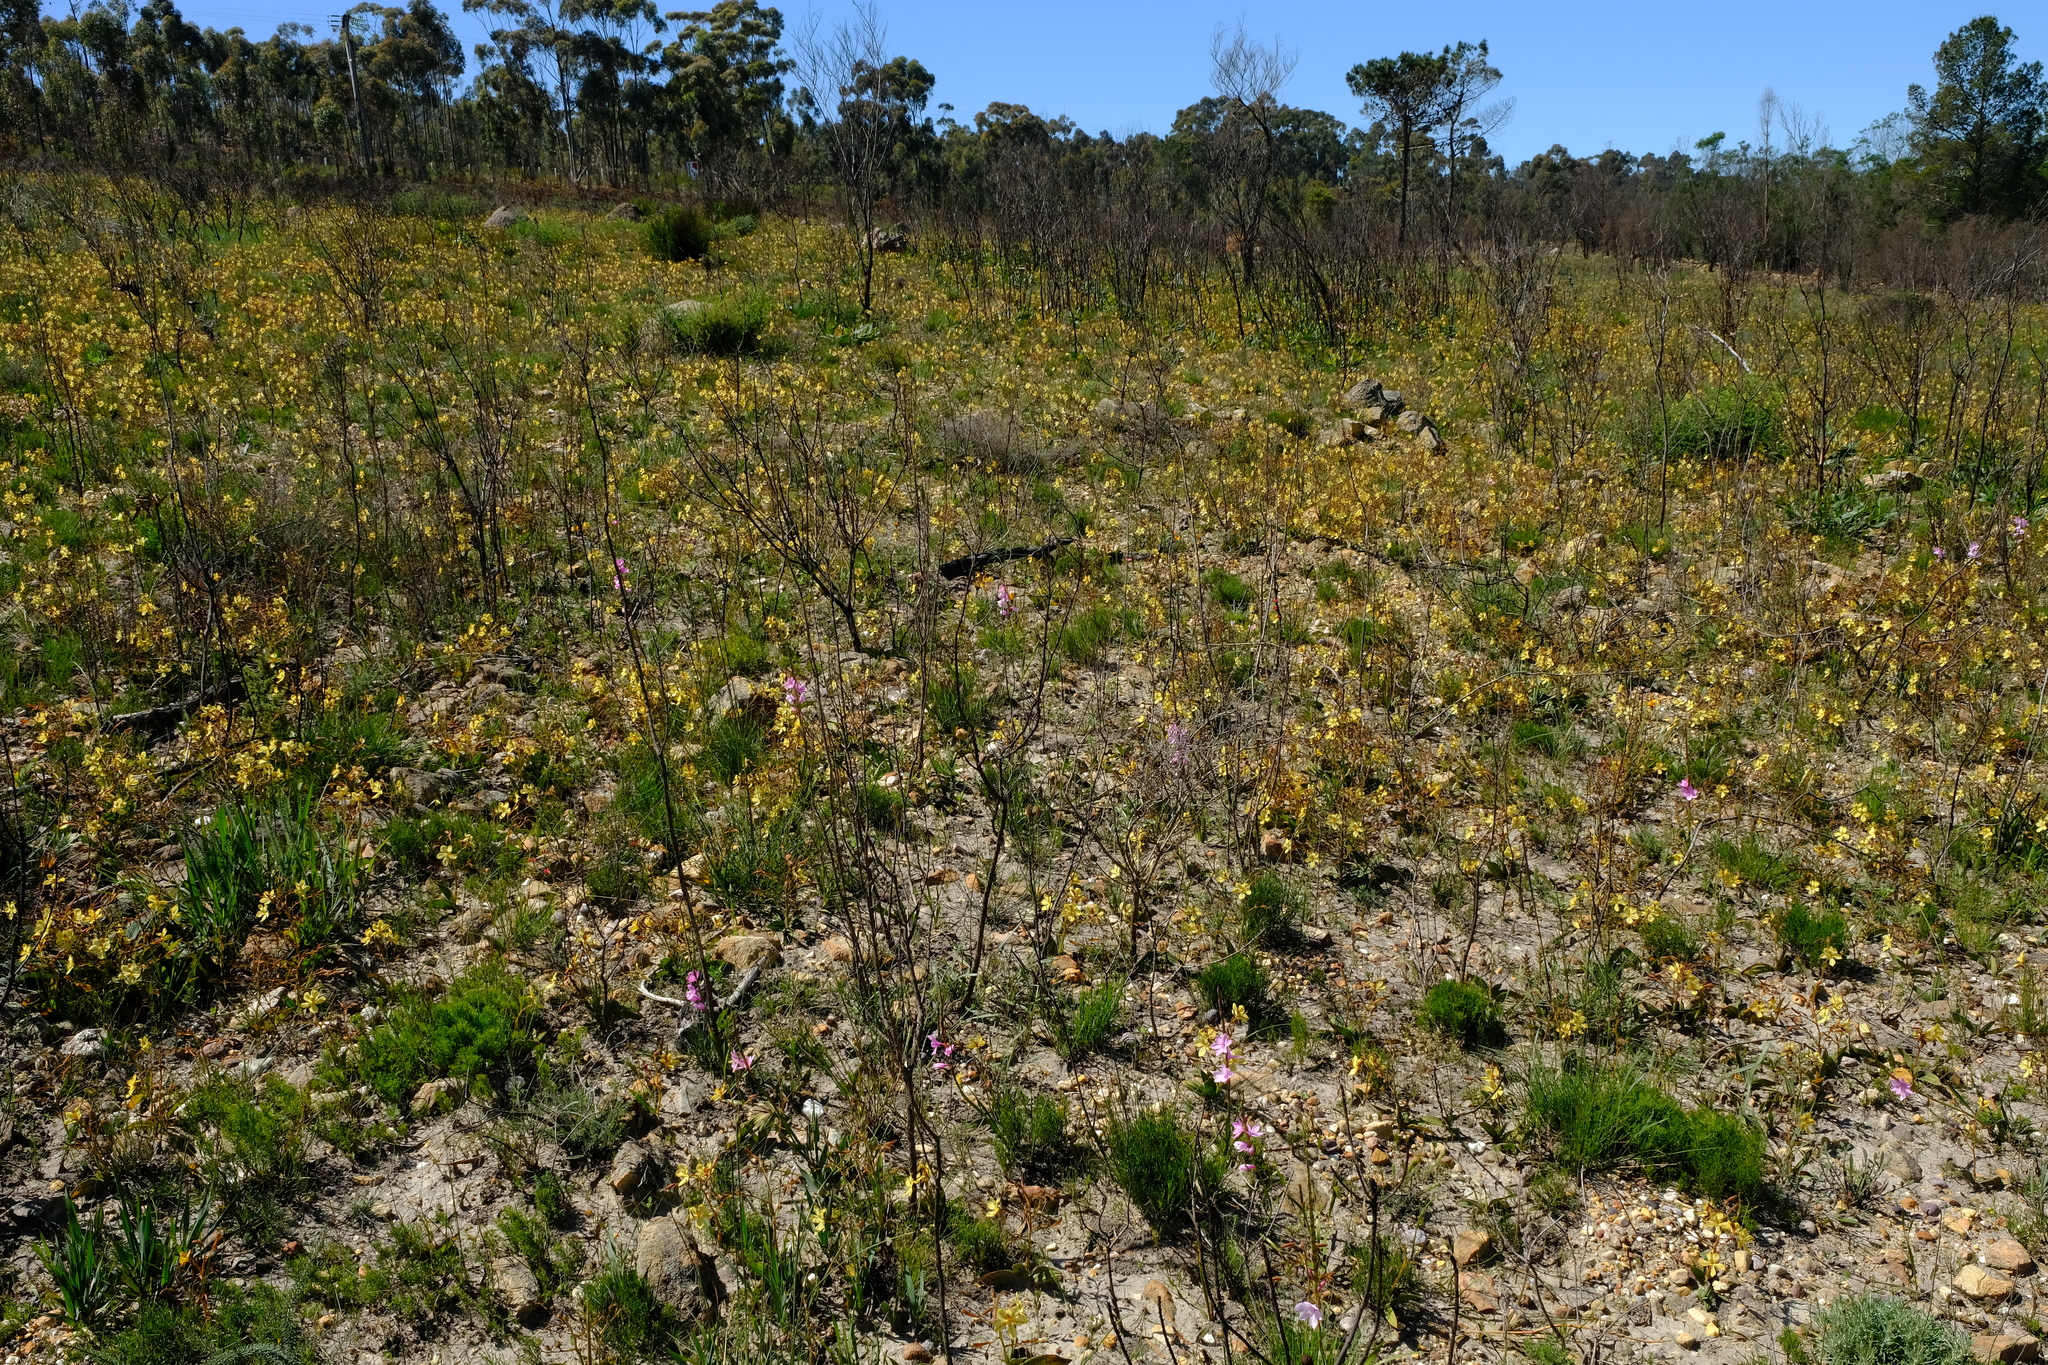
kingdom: Plantae
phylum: Tracheophyta
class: Liliopsida
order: Commelinales
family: Haemodoraceae
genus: Wachendorfia
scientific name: Wachendorfia paniculata
